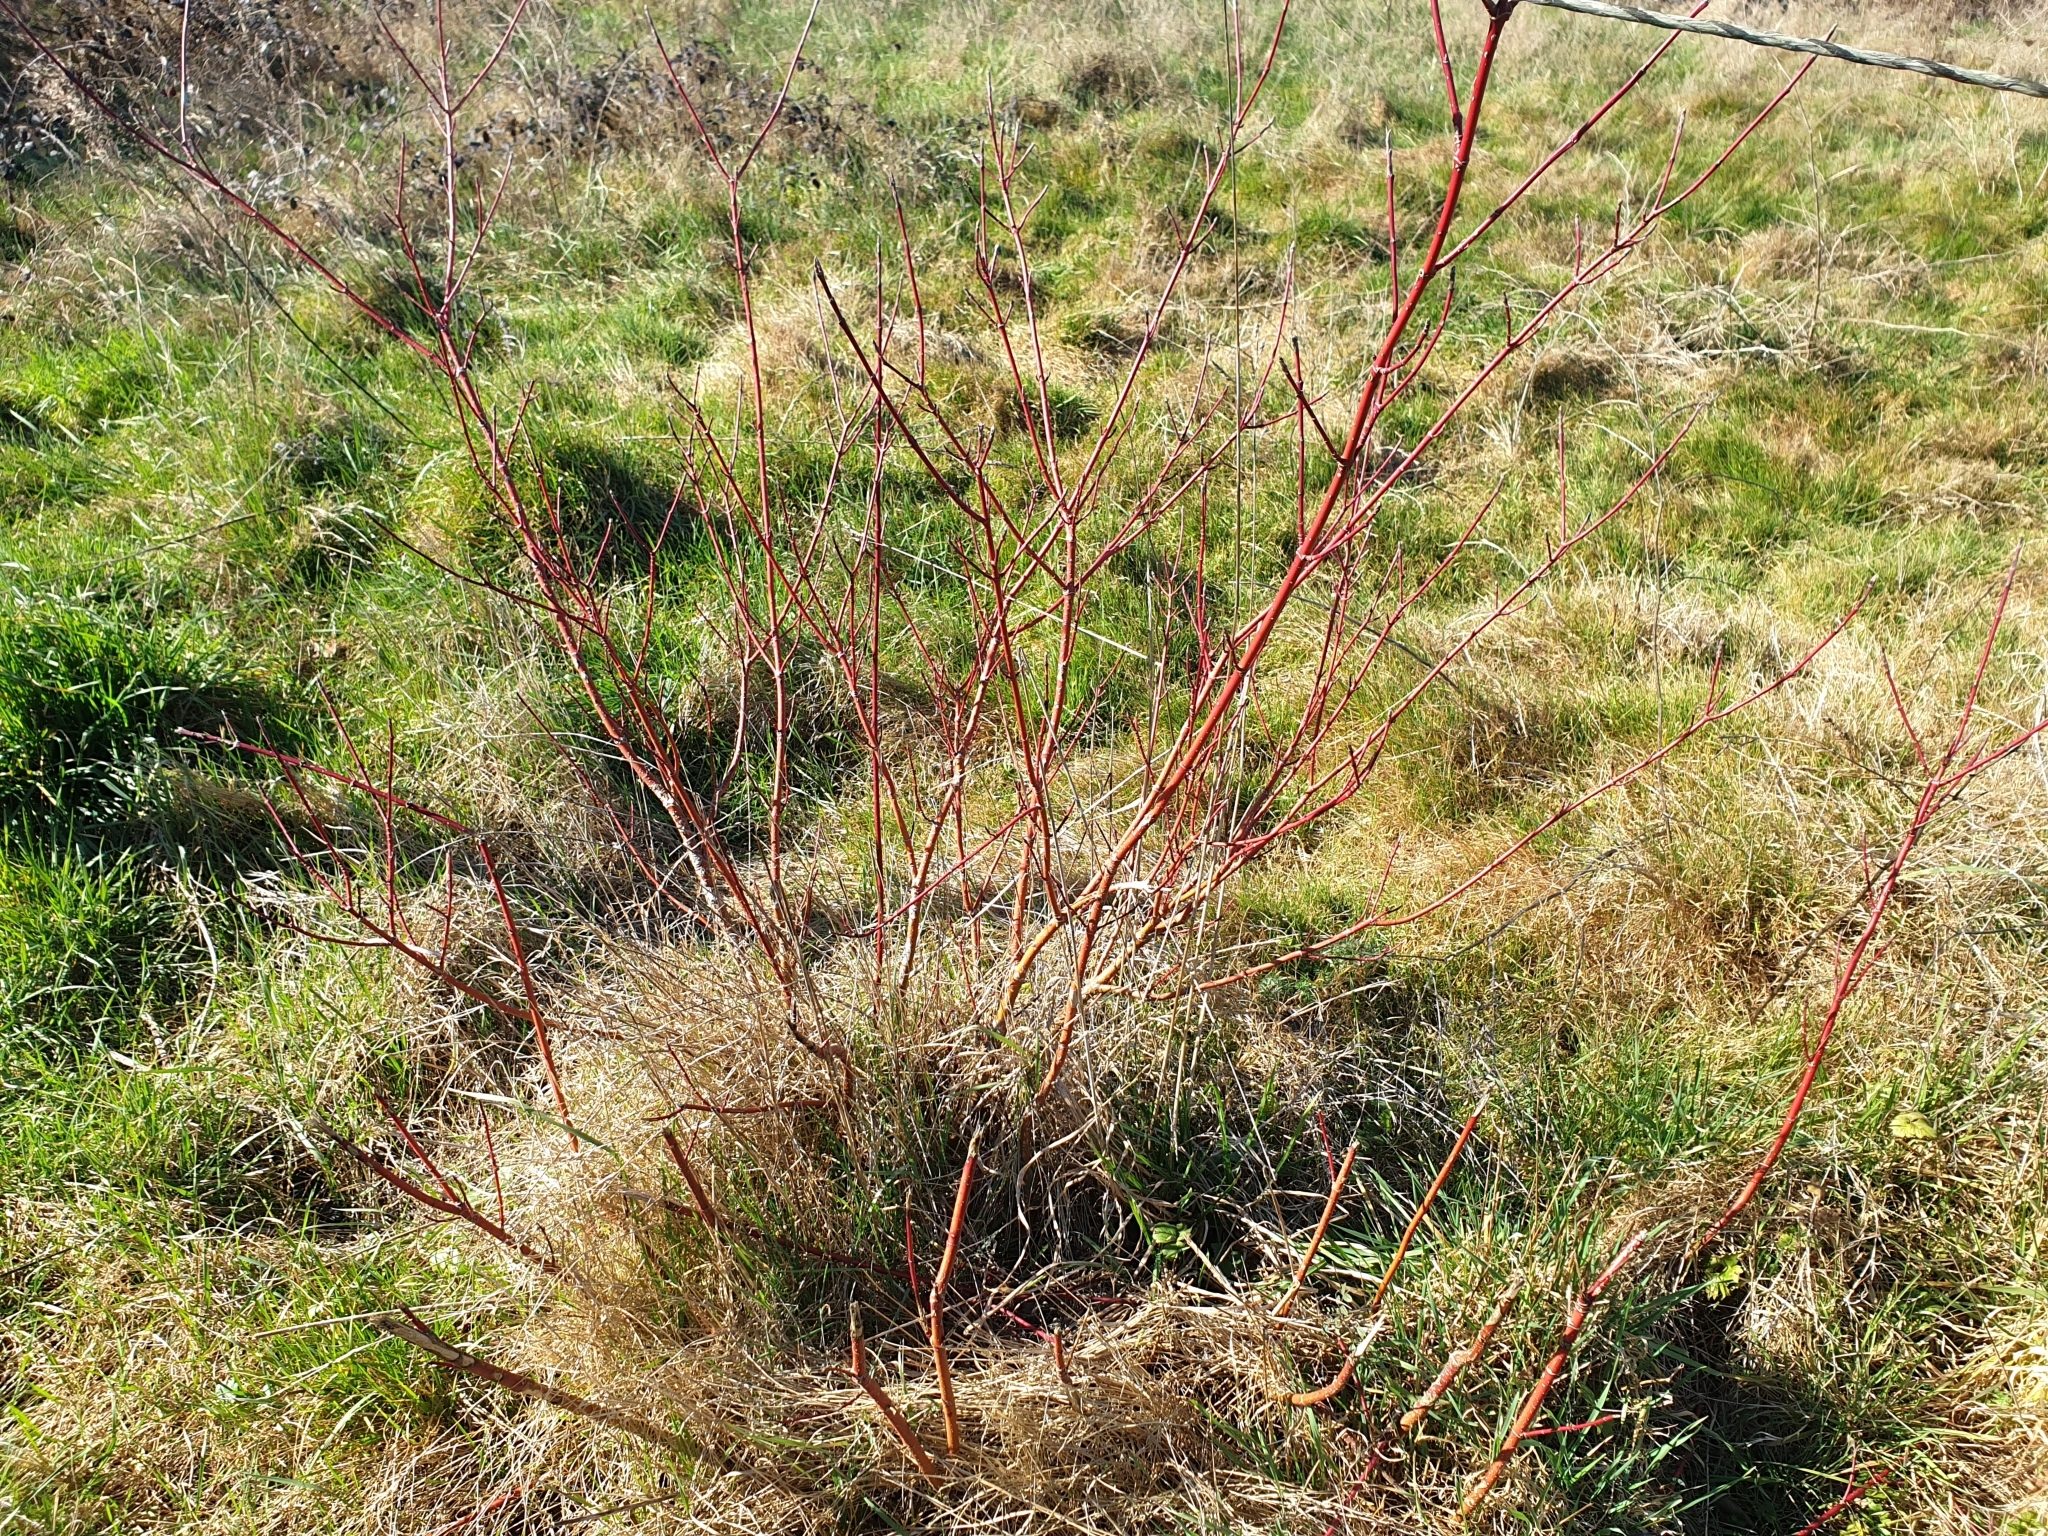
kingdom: Plantae
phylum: Tracheophyta
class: Magnoliopsida
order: Cornales
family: Cornaceae
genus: Cornus
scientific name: Cornus sanguinea
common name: Dogwood
